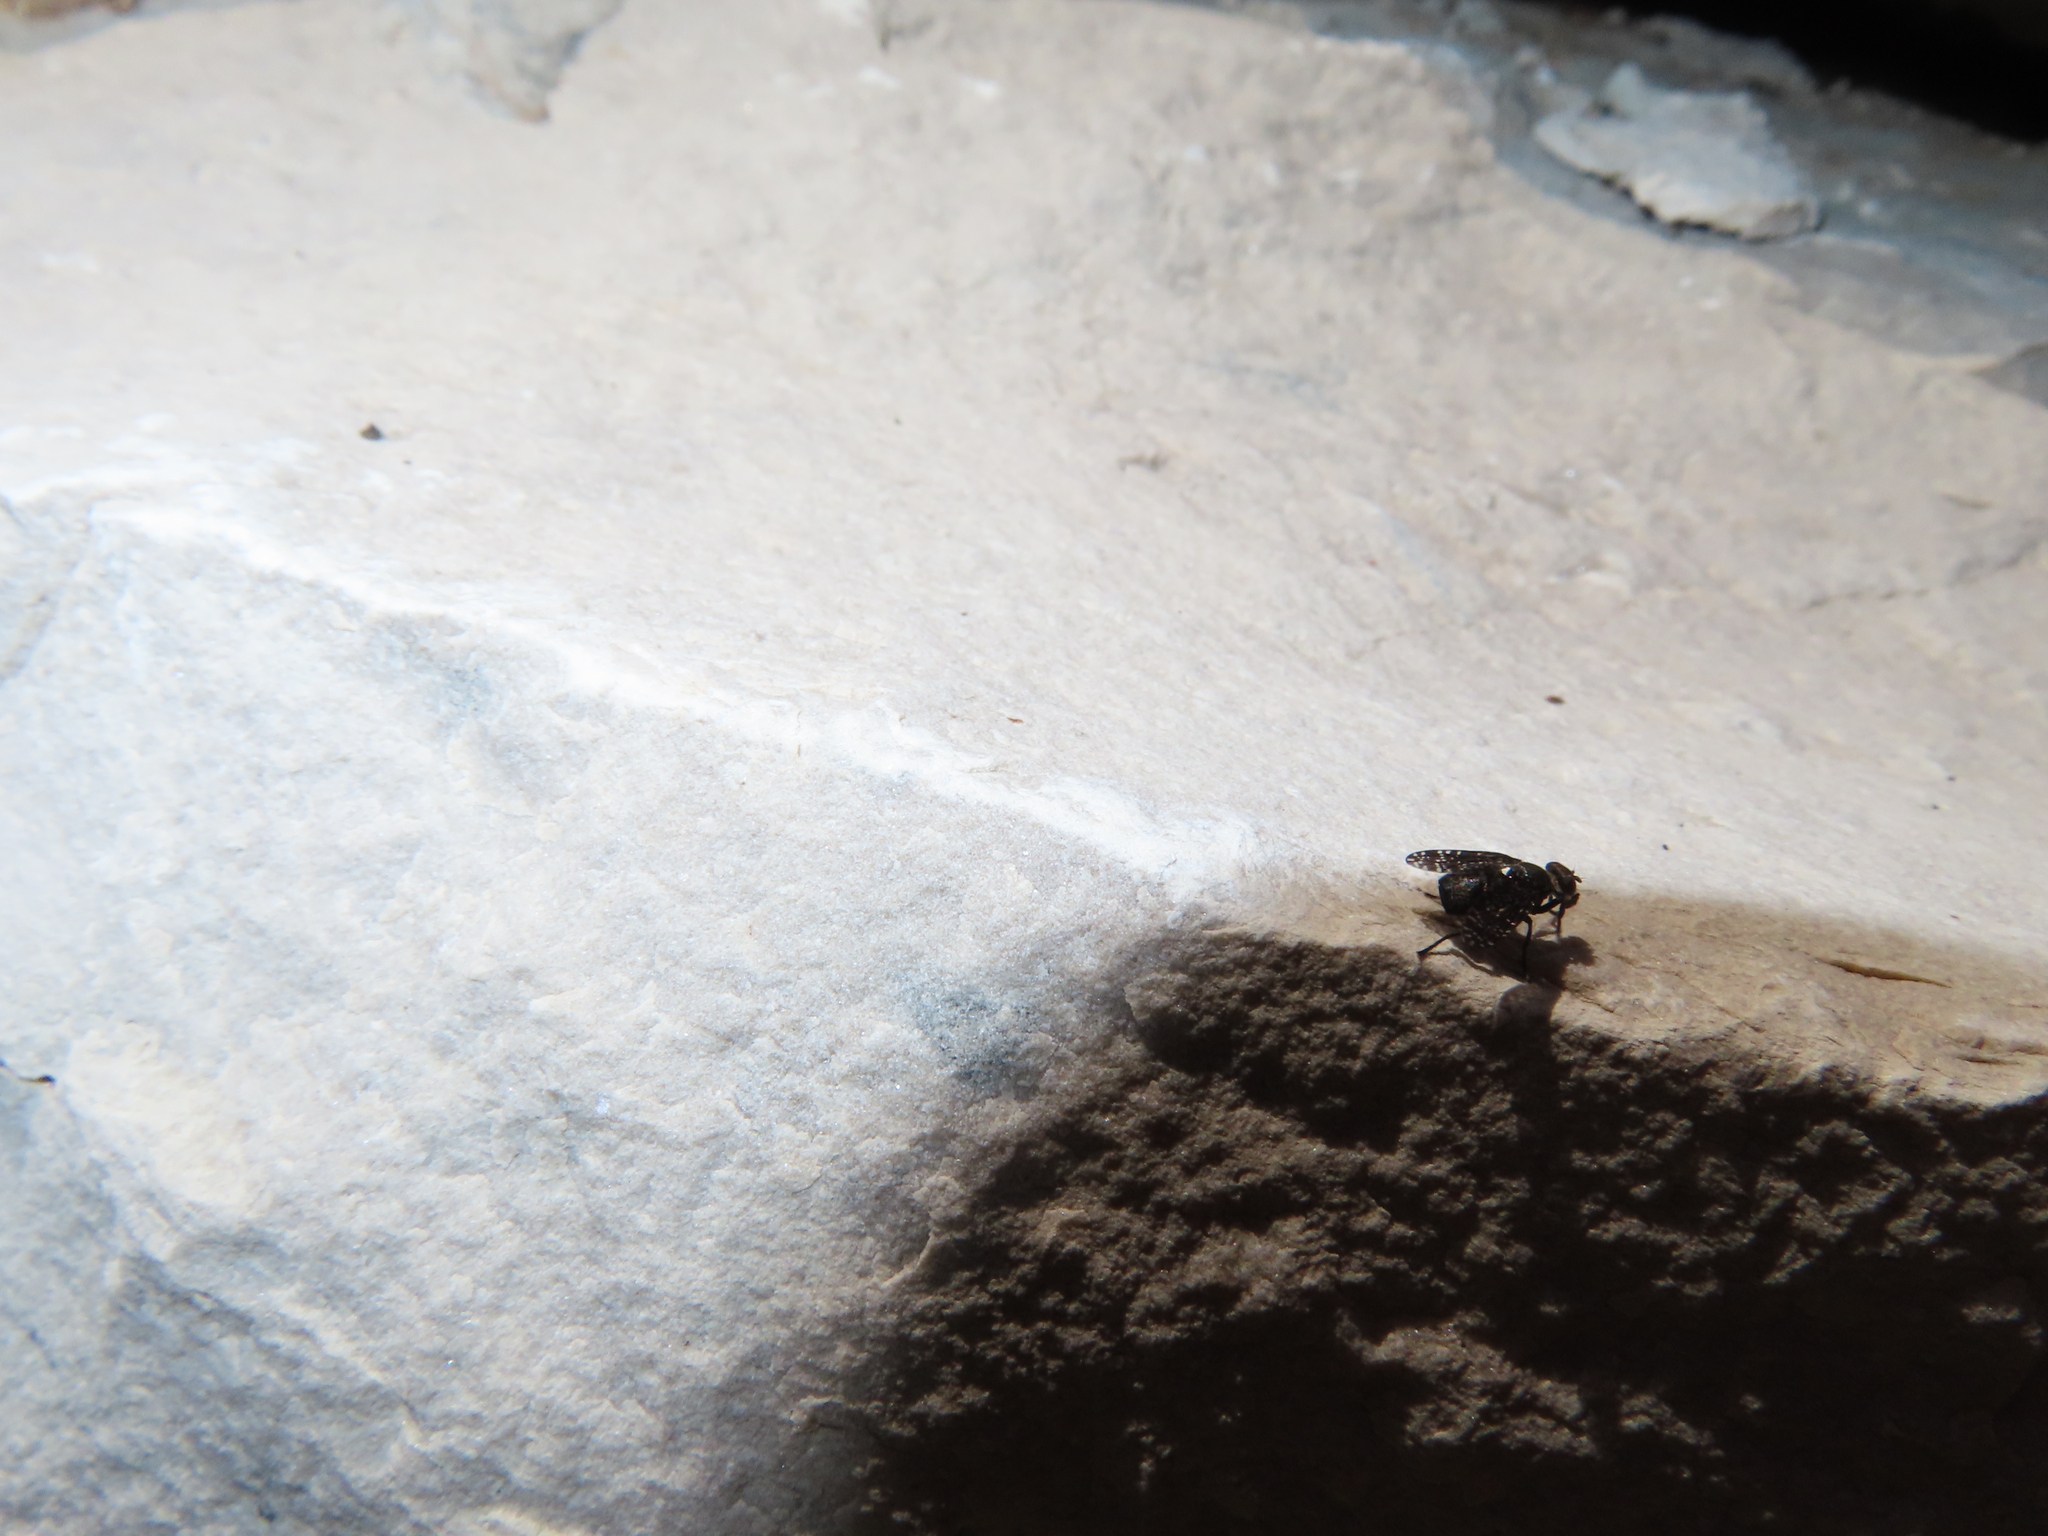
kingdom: Animalia
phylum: Arthropoda
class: Insecta
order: Diptera
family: Platystomatidae
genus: Platystoma
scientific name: Platystoma seminationis
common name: Fly
